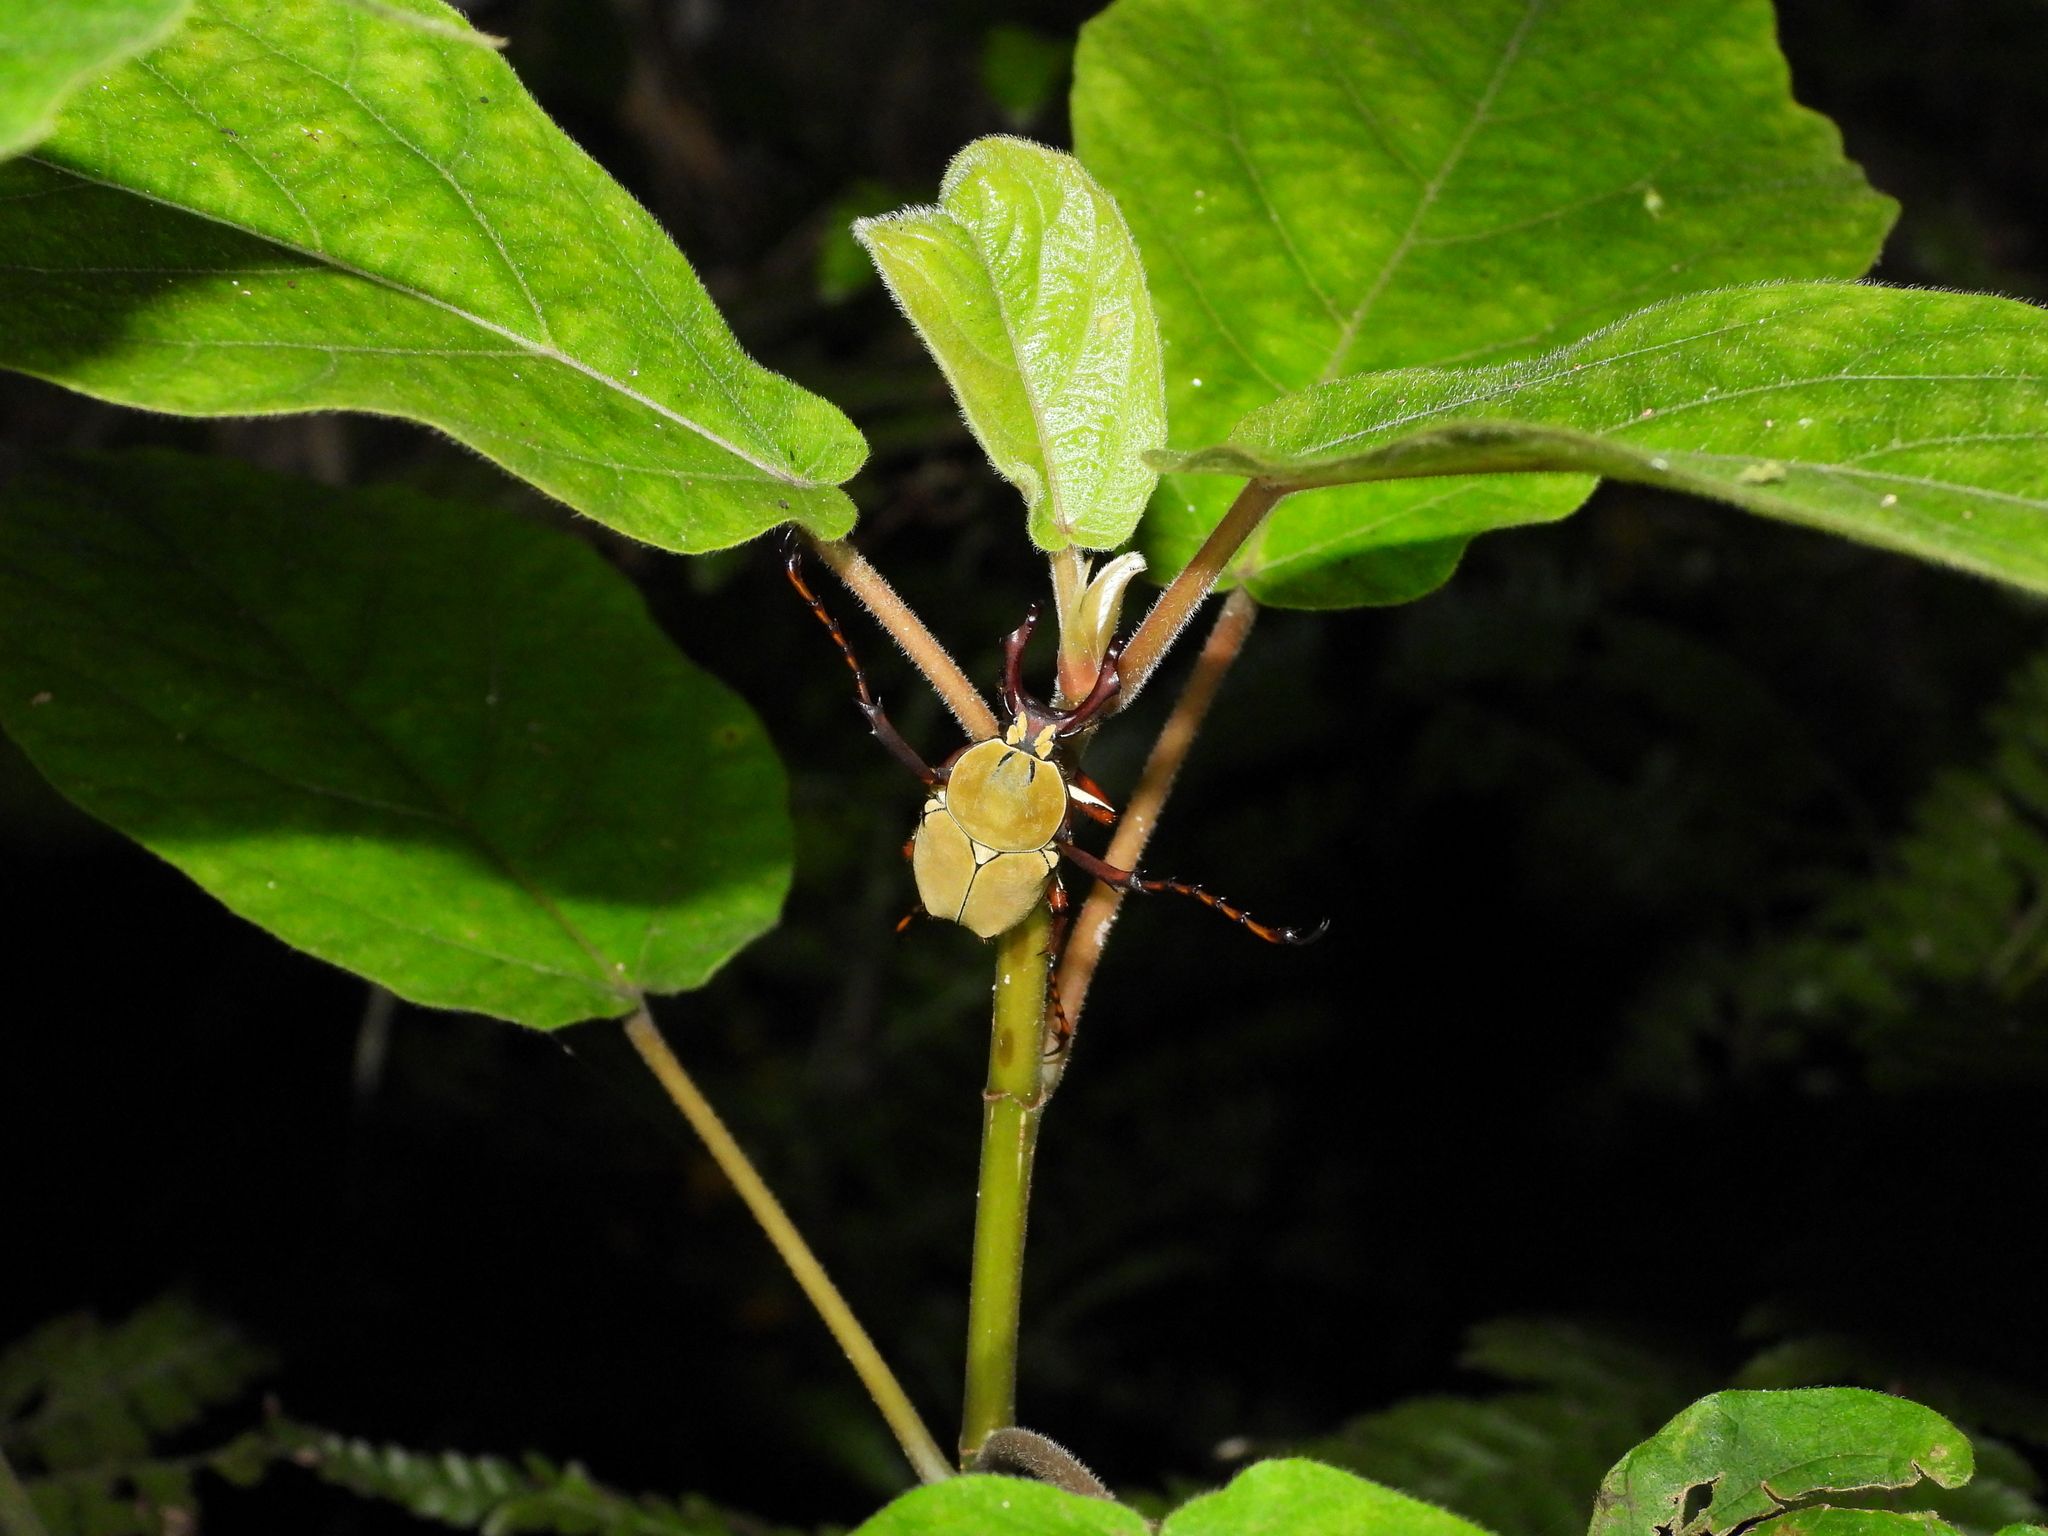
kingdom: Animalia
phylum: Arthropoda
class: Insecta
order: Coleoptera
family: Scarabaeidae
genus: Dicronocephalus
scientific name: Dicronocephalus bourgoini
